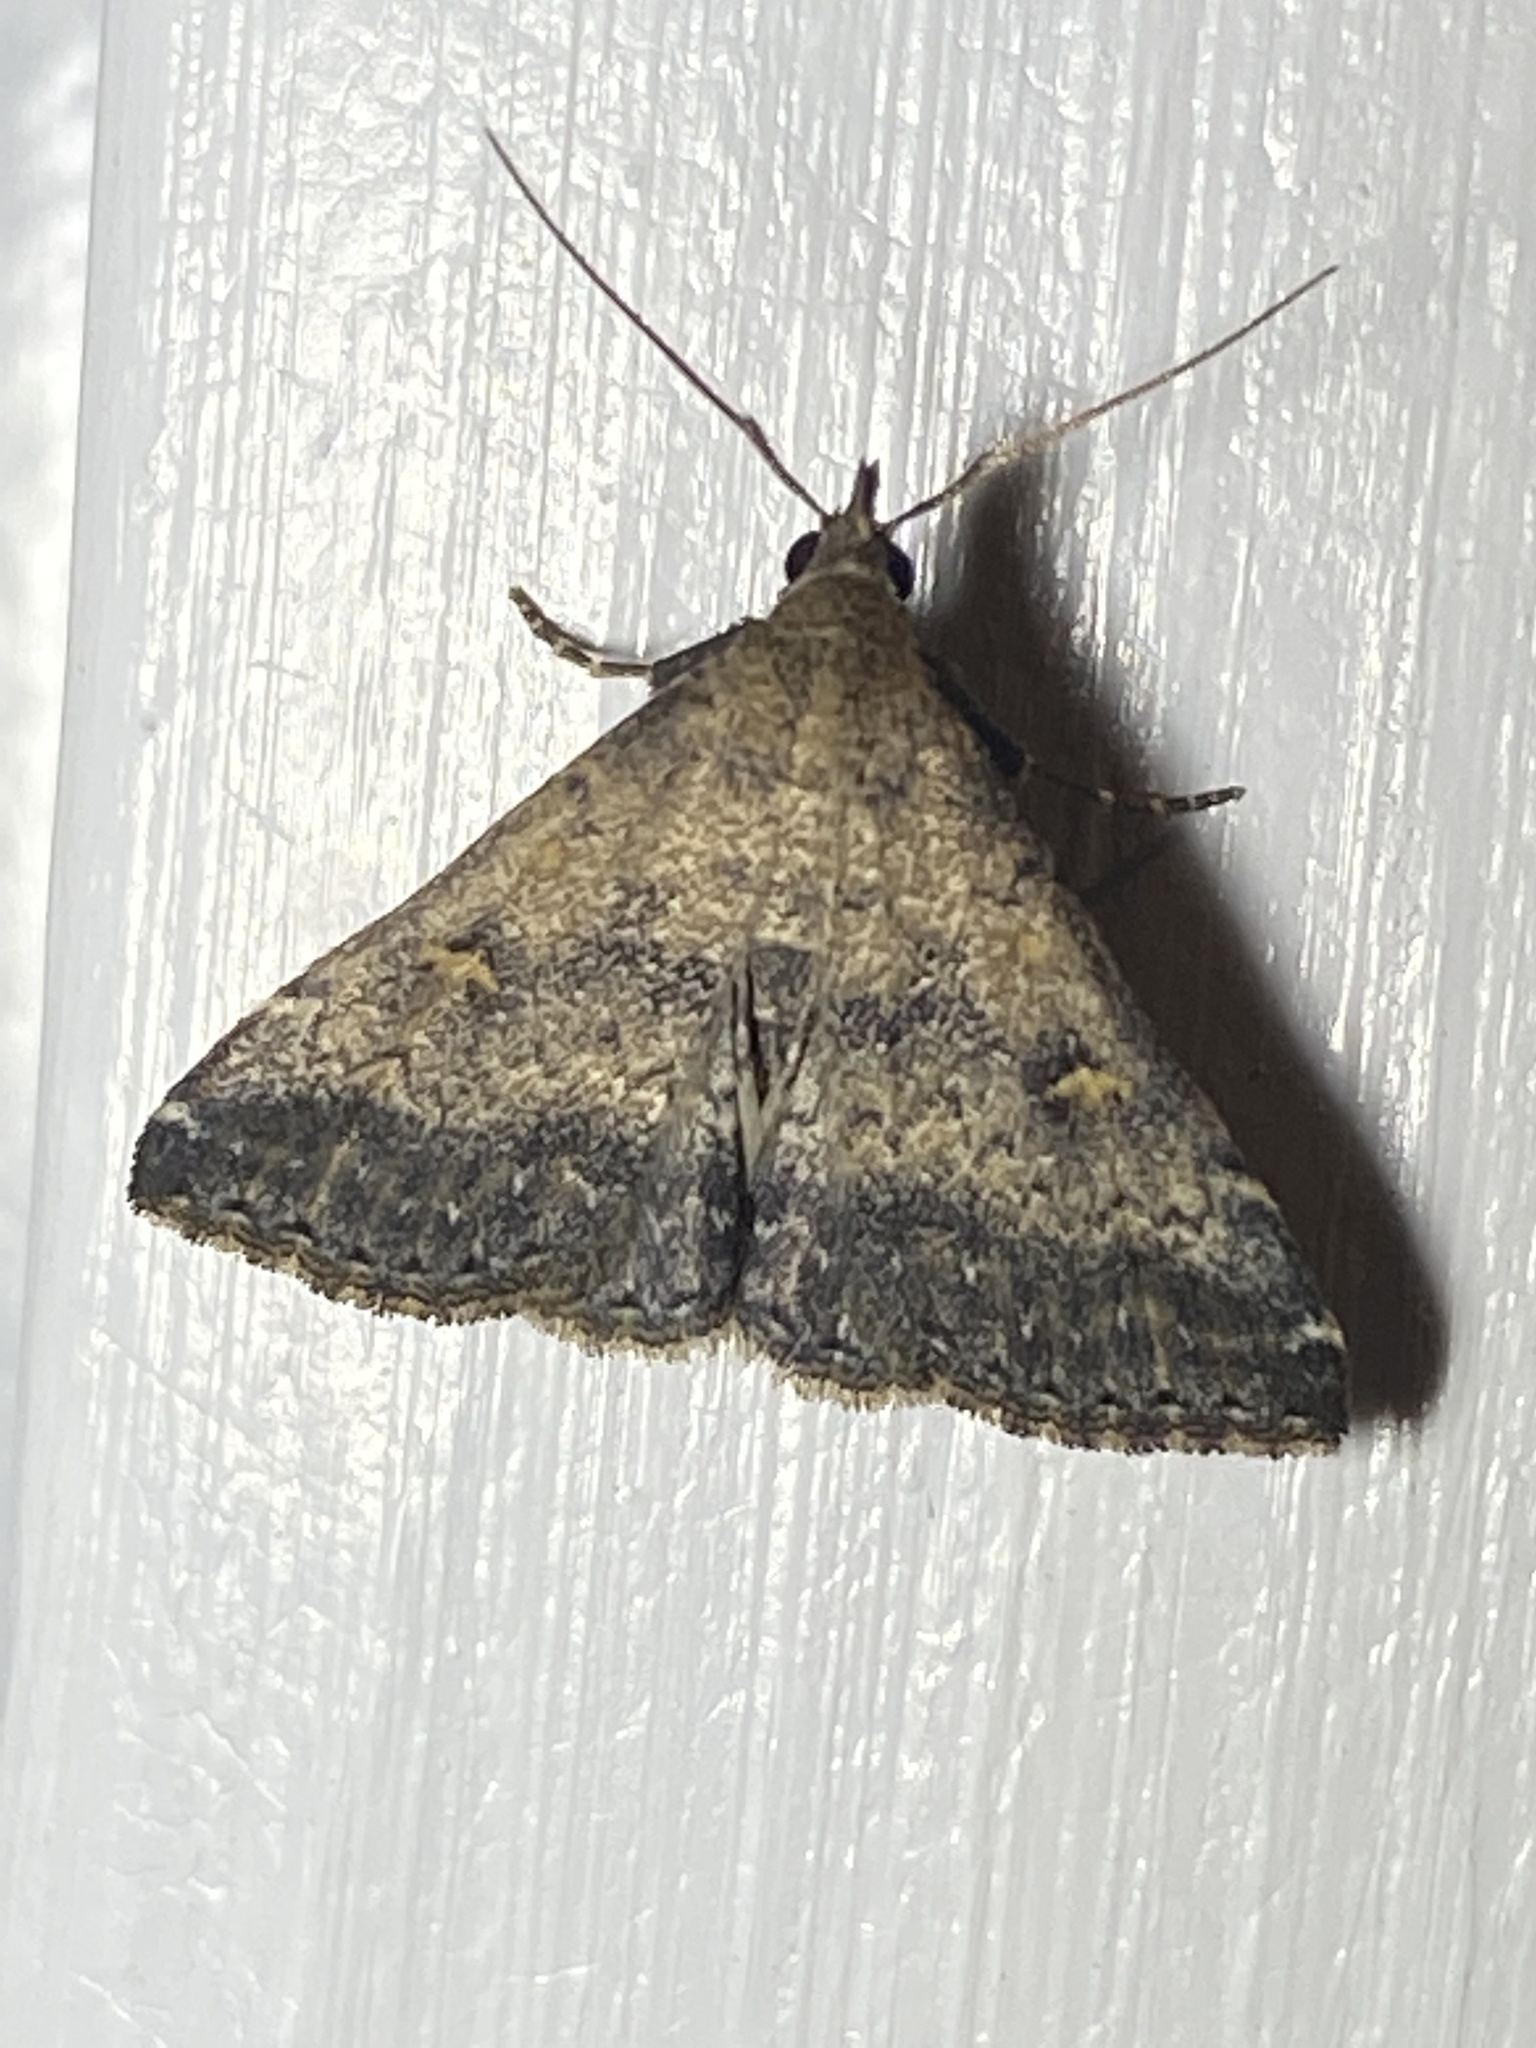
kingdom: Animalia
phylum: Arthropoda
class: Insecta
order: Lepidoptera
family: Erebidae
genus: Tetanolita
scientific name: Tetanolita floridana
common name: Florida tetanolita moth
